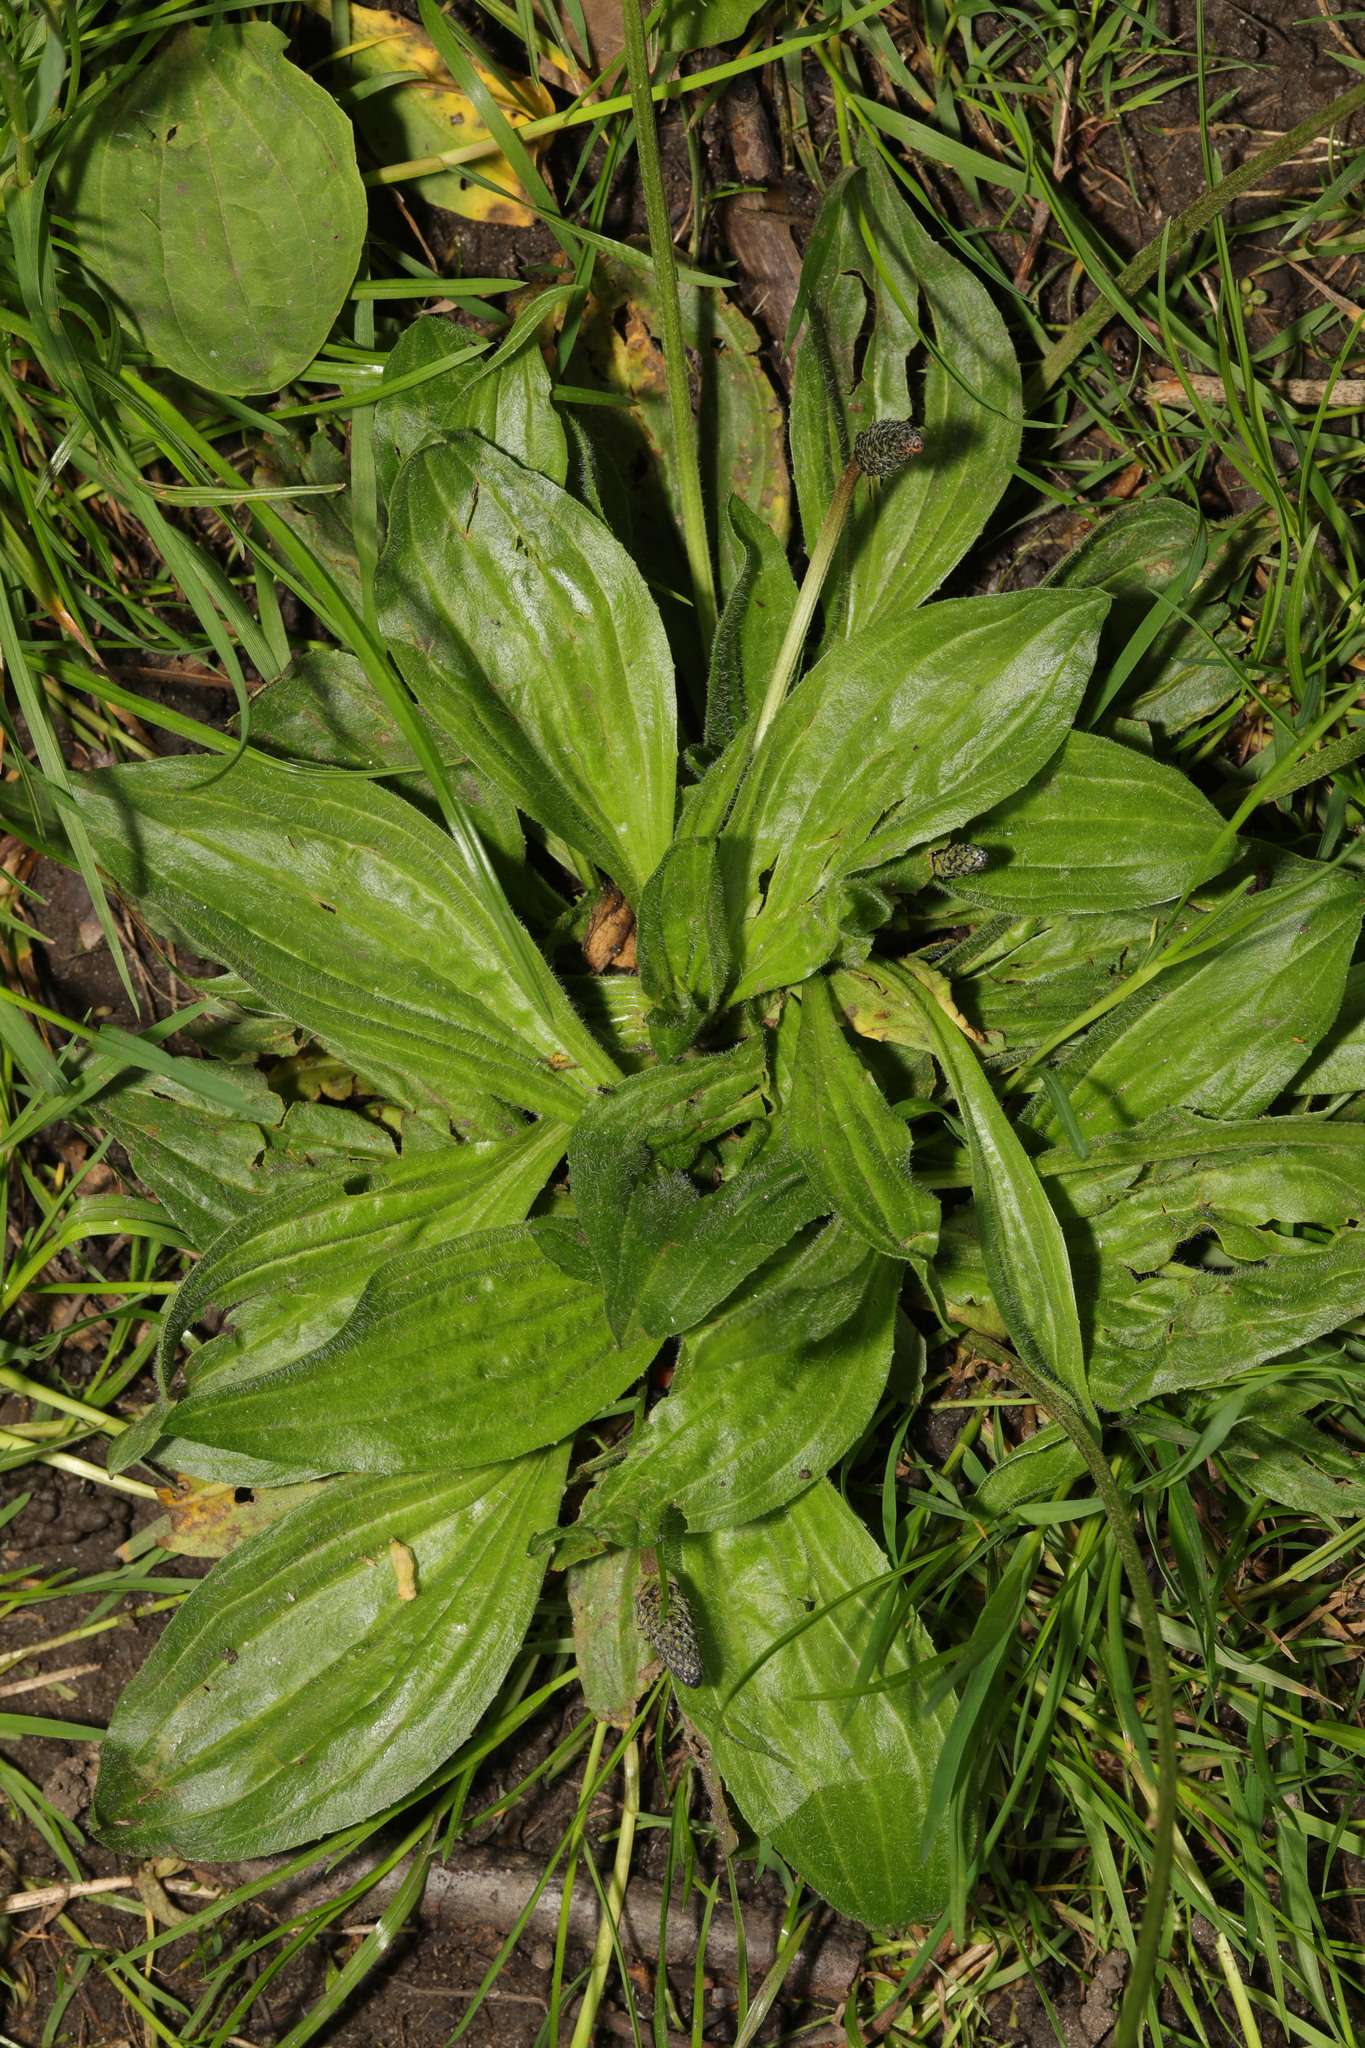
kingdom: Plantae
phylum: Tracheophyta
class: Magnoliopsida
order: Lamiales
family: Plantaginaceae
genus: Plantago
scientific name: Plantago lanceolata
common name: Ribwort plantain
